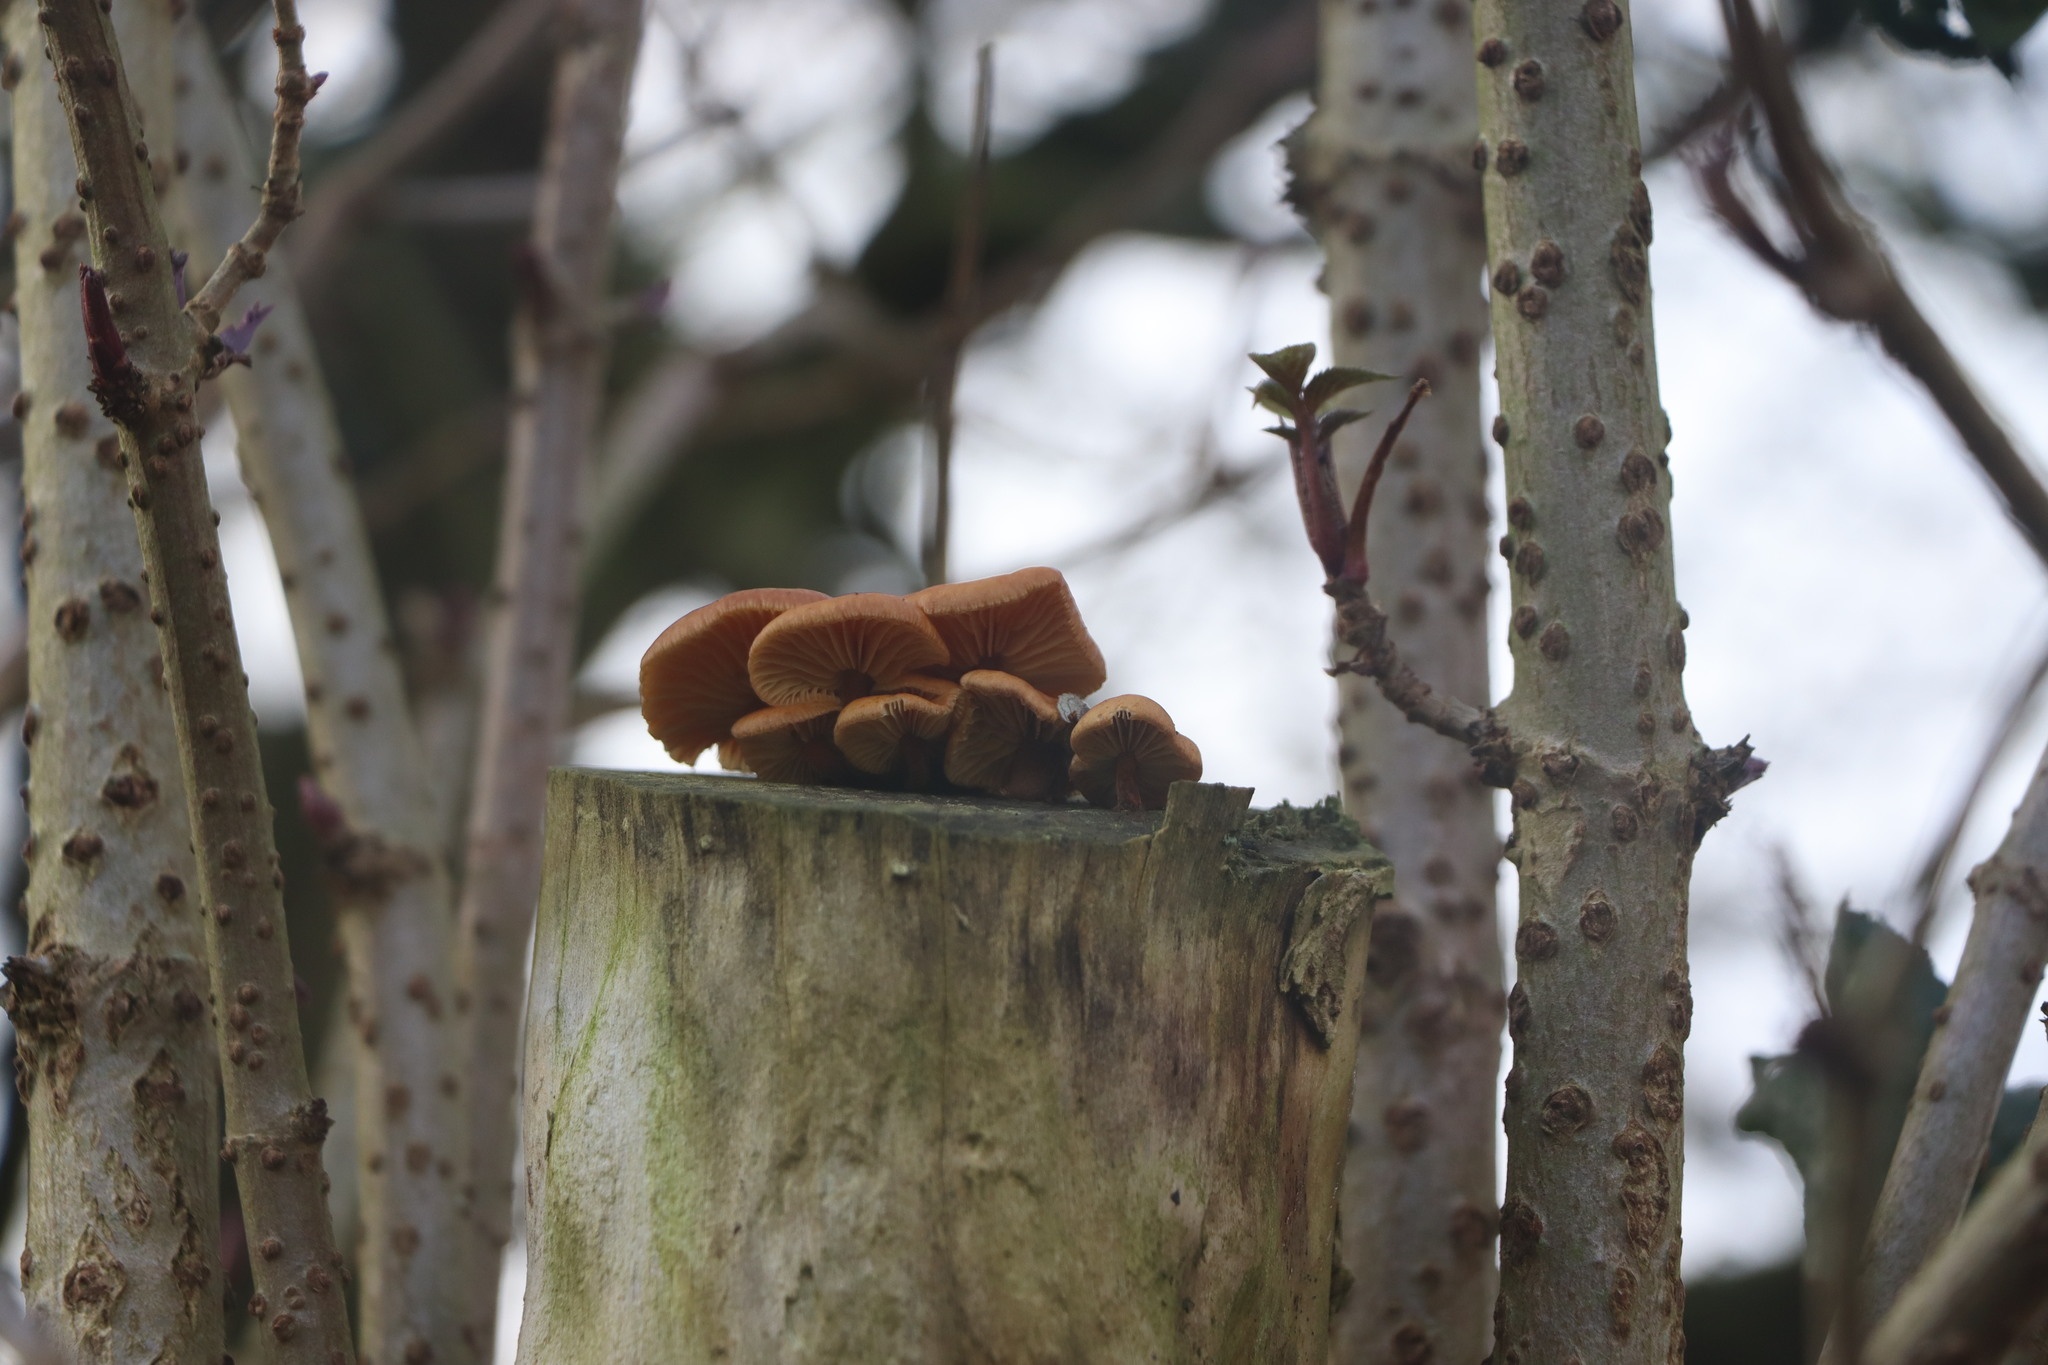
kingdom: Fungi
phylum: Basidiomycota
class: Agaricomycetes
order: Agaricales
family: Physalacriaceae
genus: Flammulina
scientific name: Flammulina
